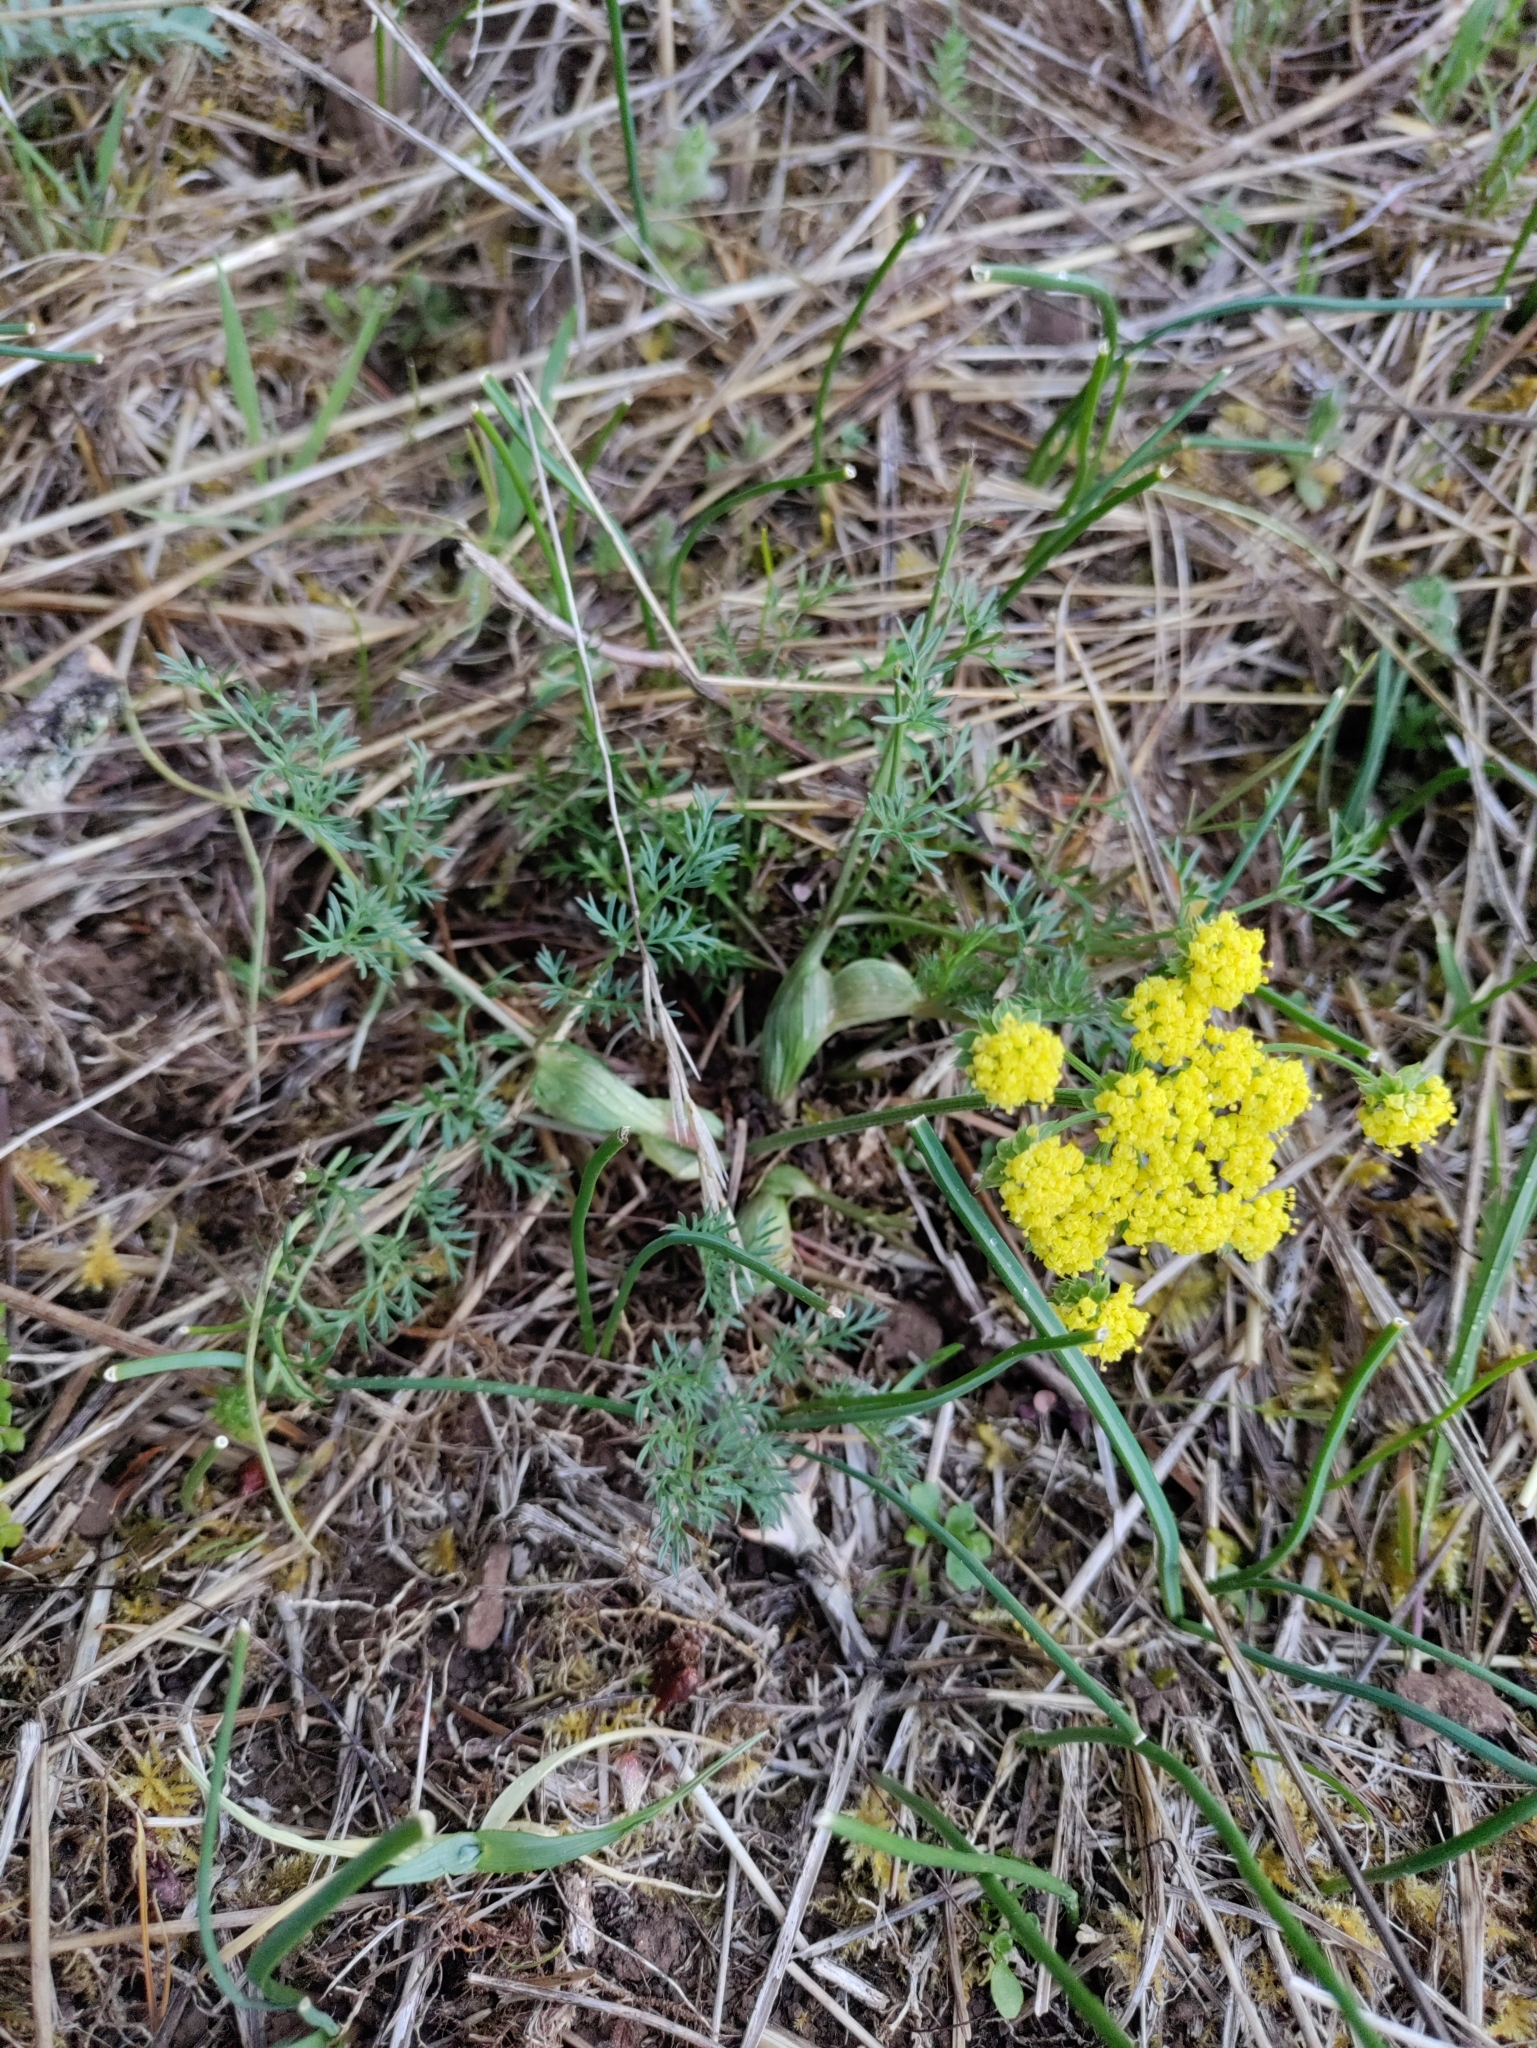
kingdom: Plantae
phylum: Tracheophyta
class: Magnoliopsida
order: Apiales
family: Apiaceae
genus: Lomatium
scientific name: Lomatium utriculatum
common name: Fine-leaf desert-parsley
